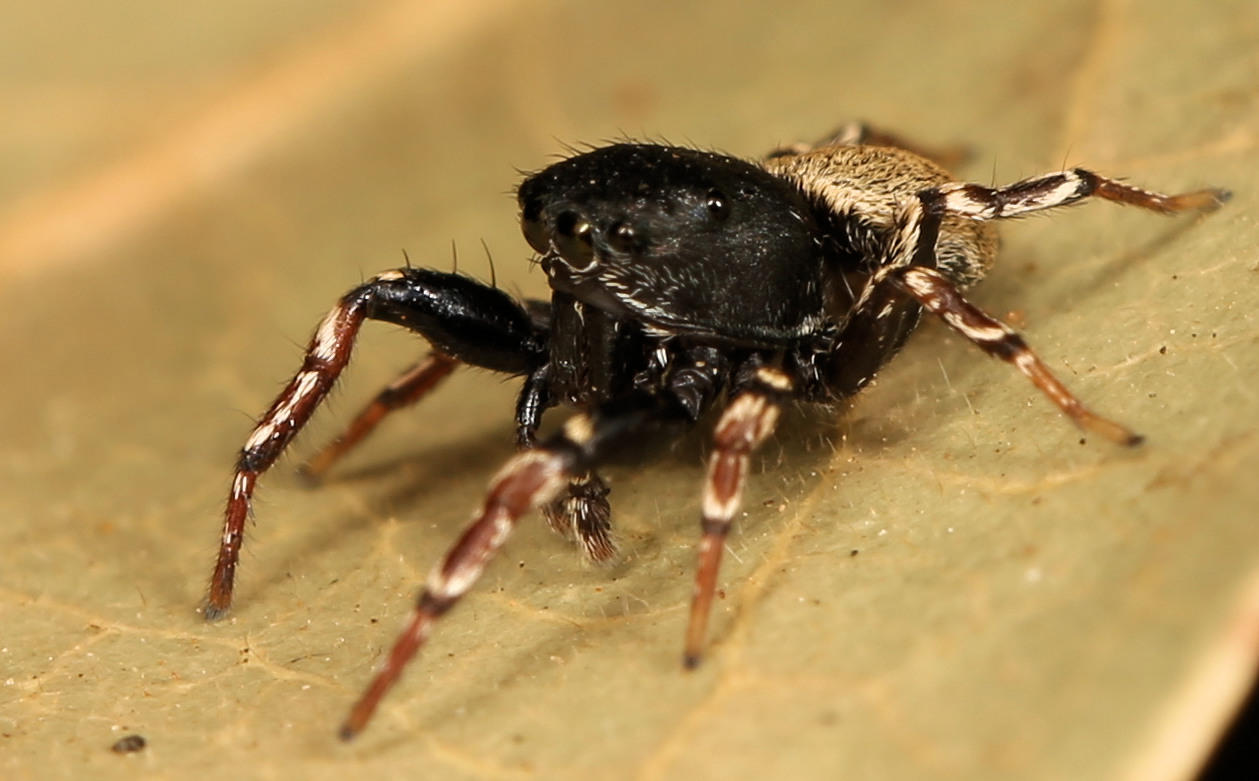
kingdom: Animalia
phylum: Arthropoda
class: Arachnida
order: Araneae
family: Salticidae
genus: Heliophanus
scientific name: Heliophanus
